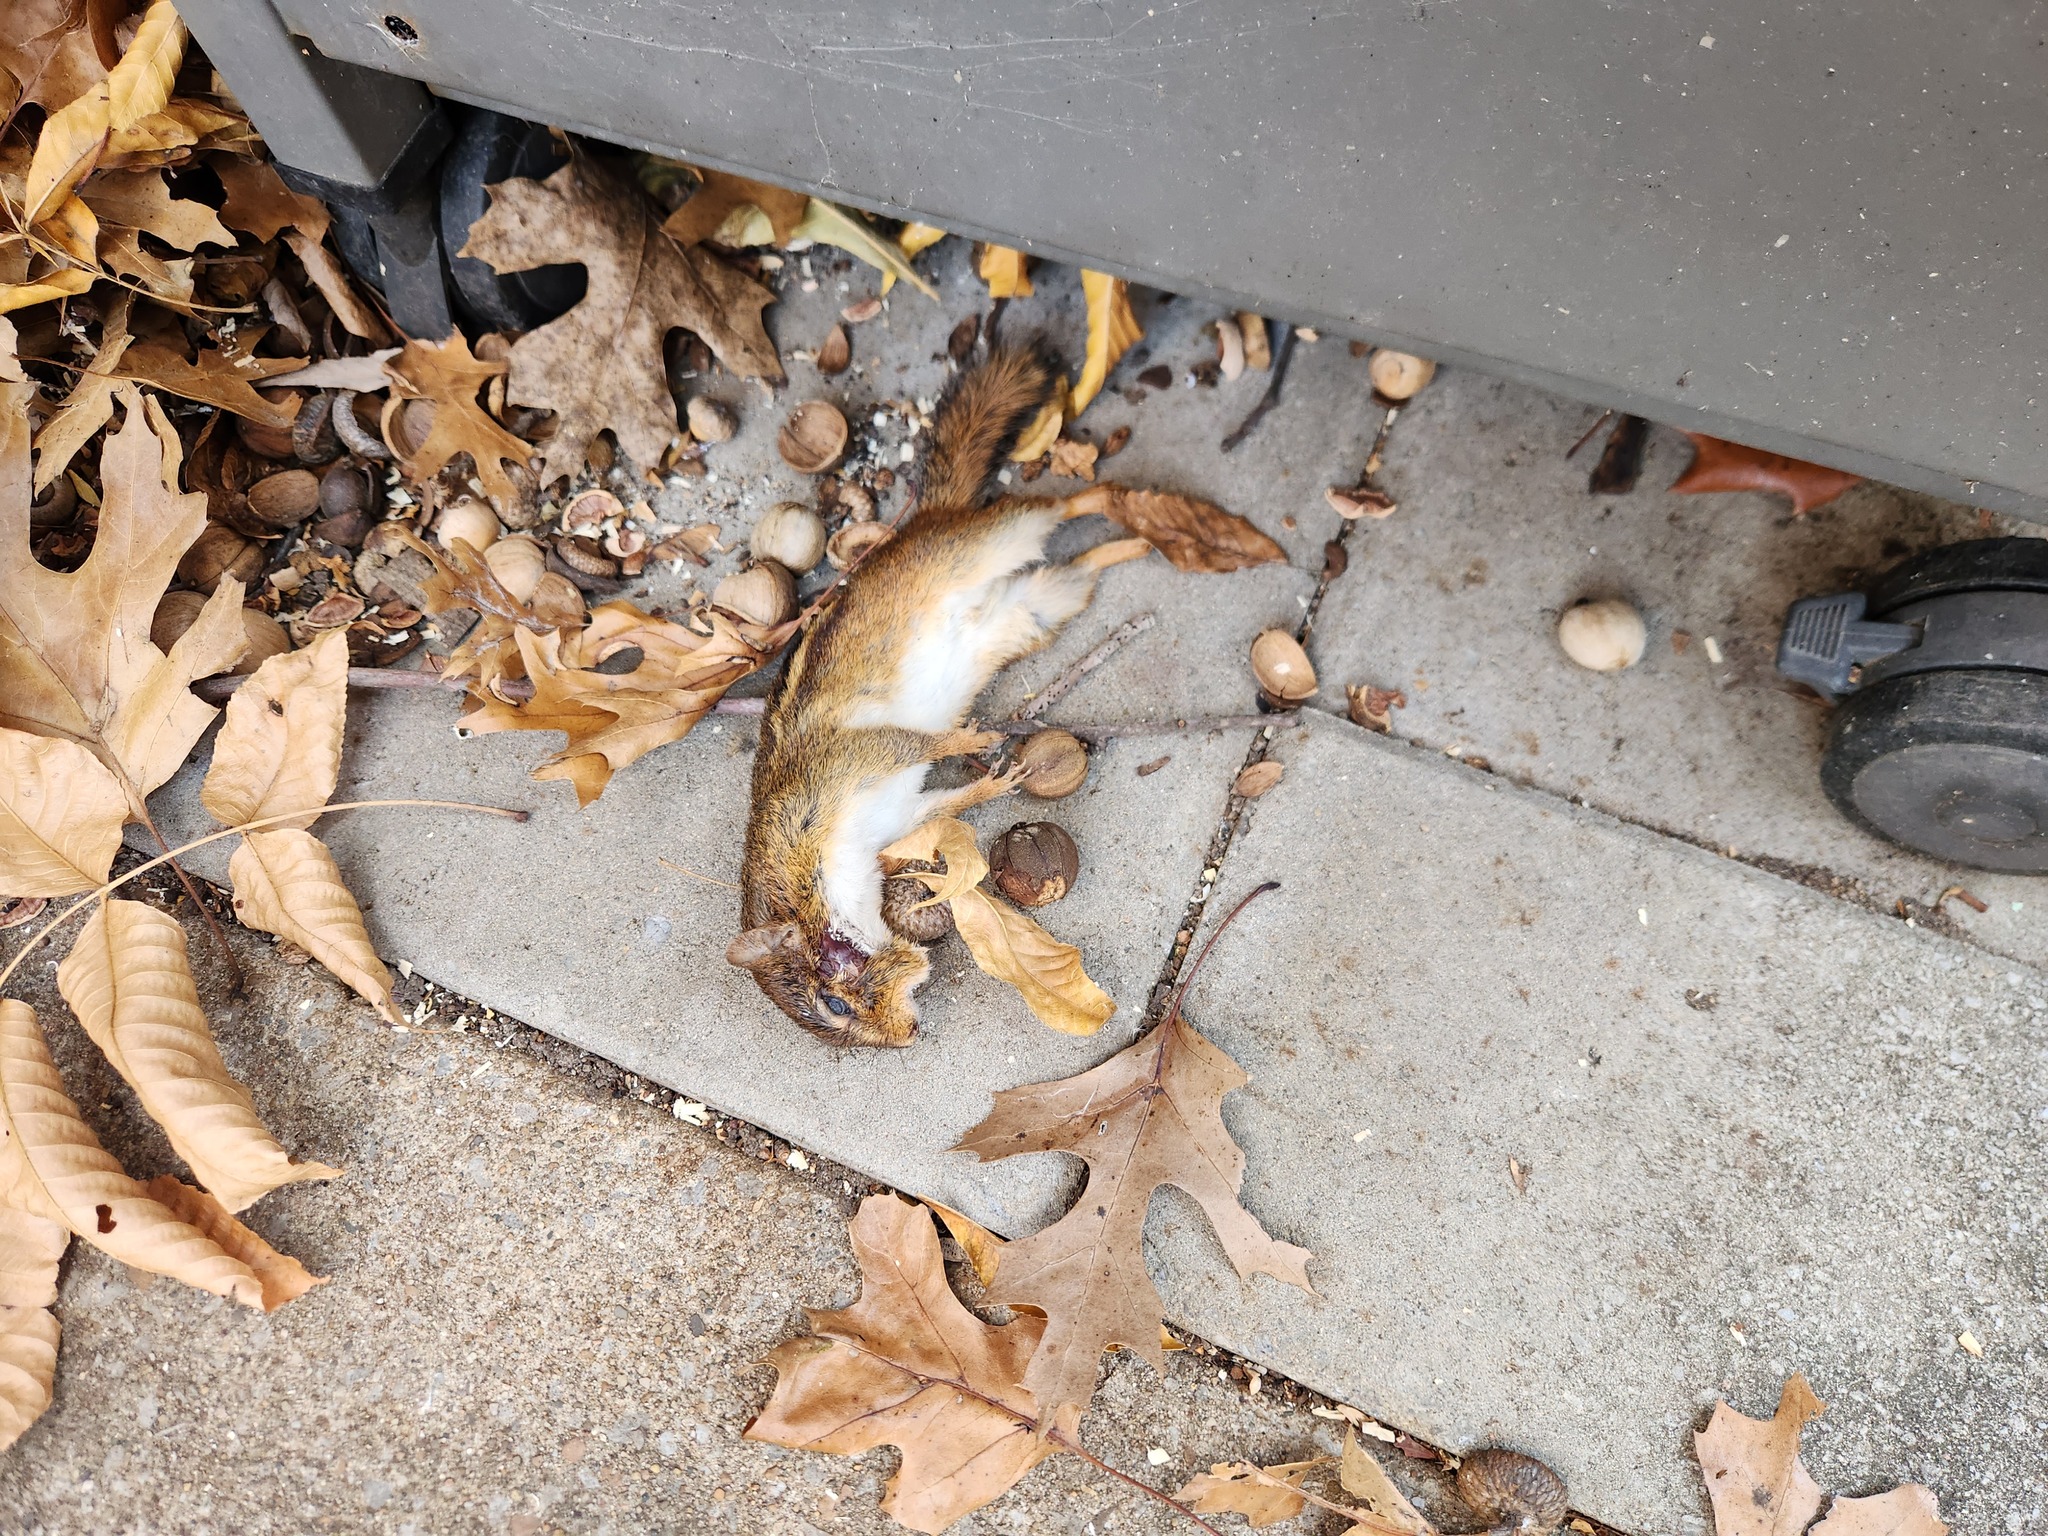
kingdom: Animalia
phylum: Chordata
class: Mammalia
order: Rodentia
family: Sciuridae
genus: Tamias
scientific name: Tamias striatus
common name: Eastern chipmunk
